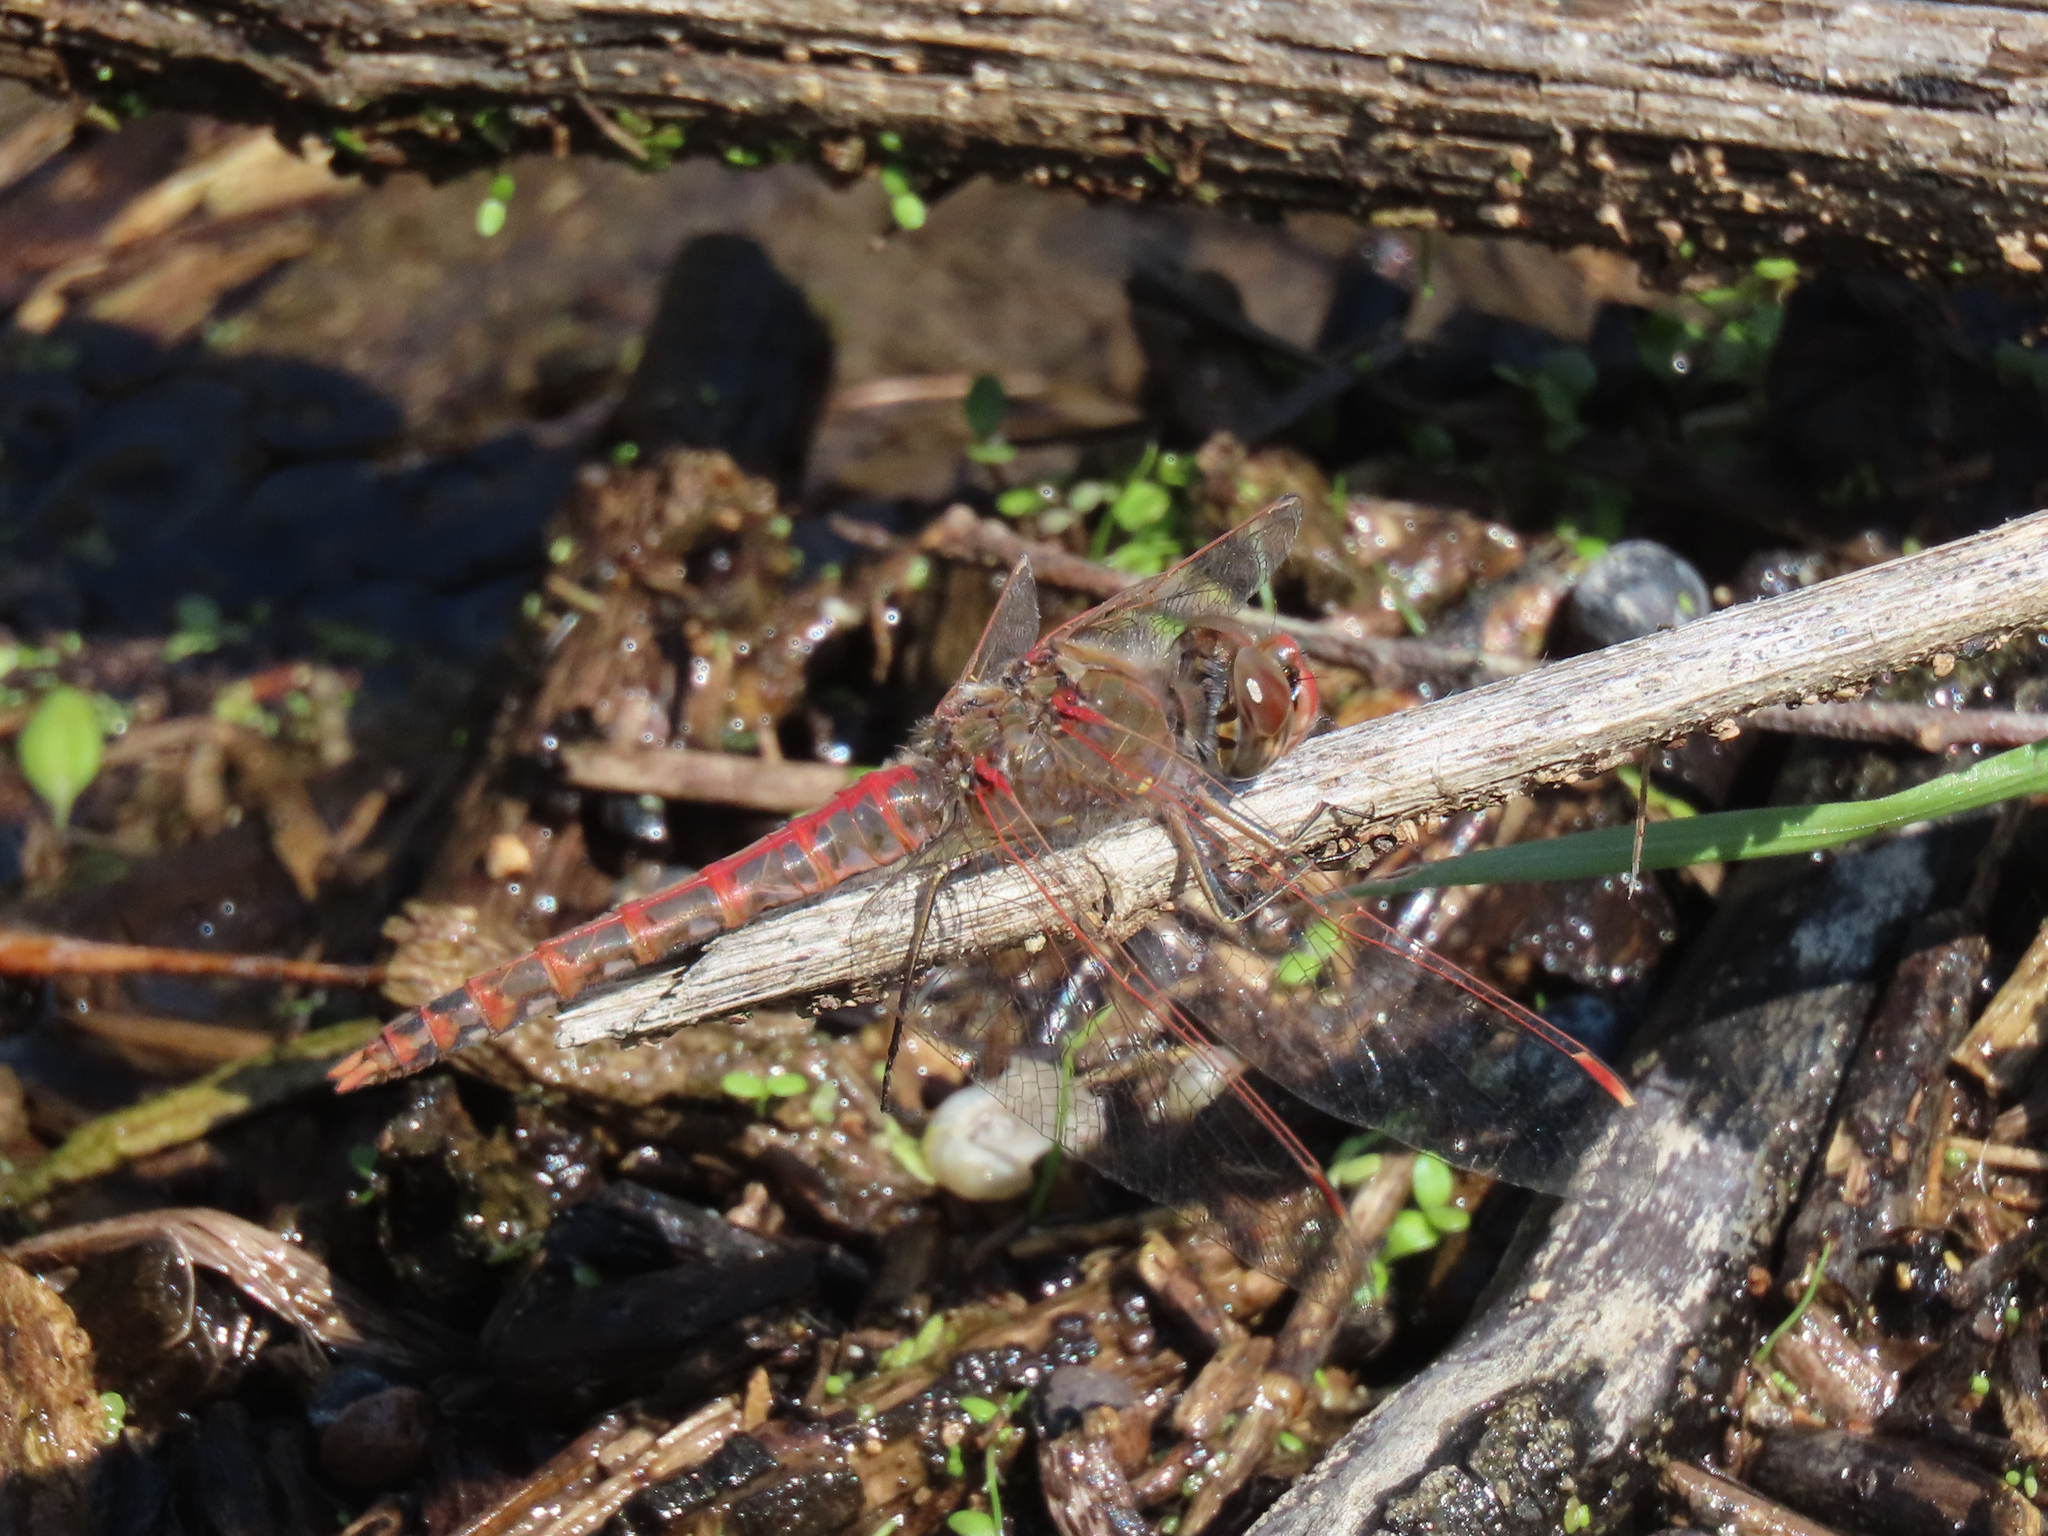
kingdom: Animalia
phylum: Arthropoda
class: Insecta
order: Odonata
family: Libellulidae
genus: Sympetrum
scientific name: Sympetrum corruptum
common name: Variegated meadowhawk
